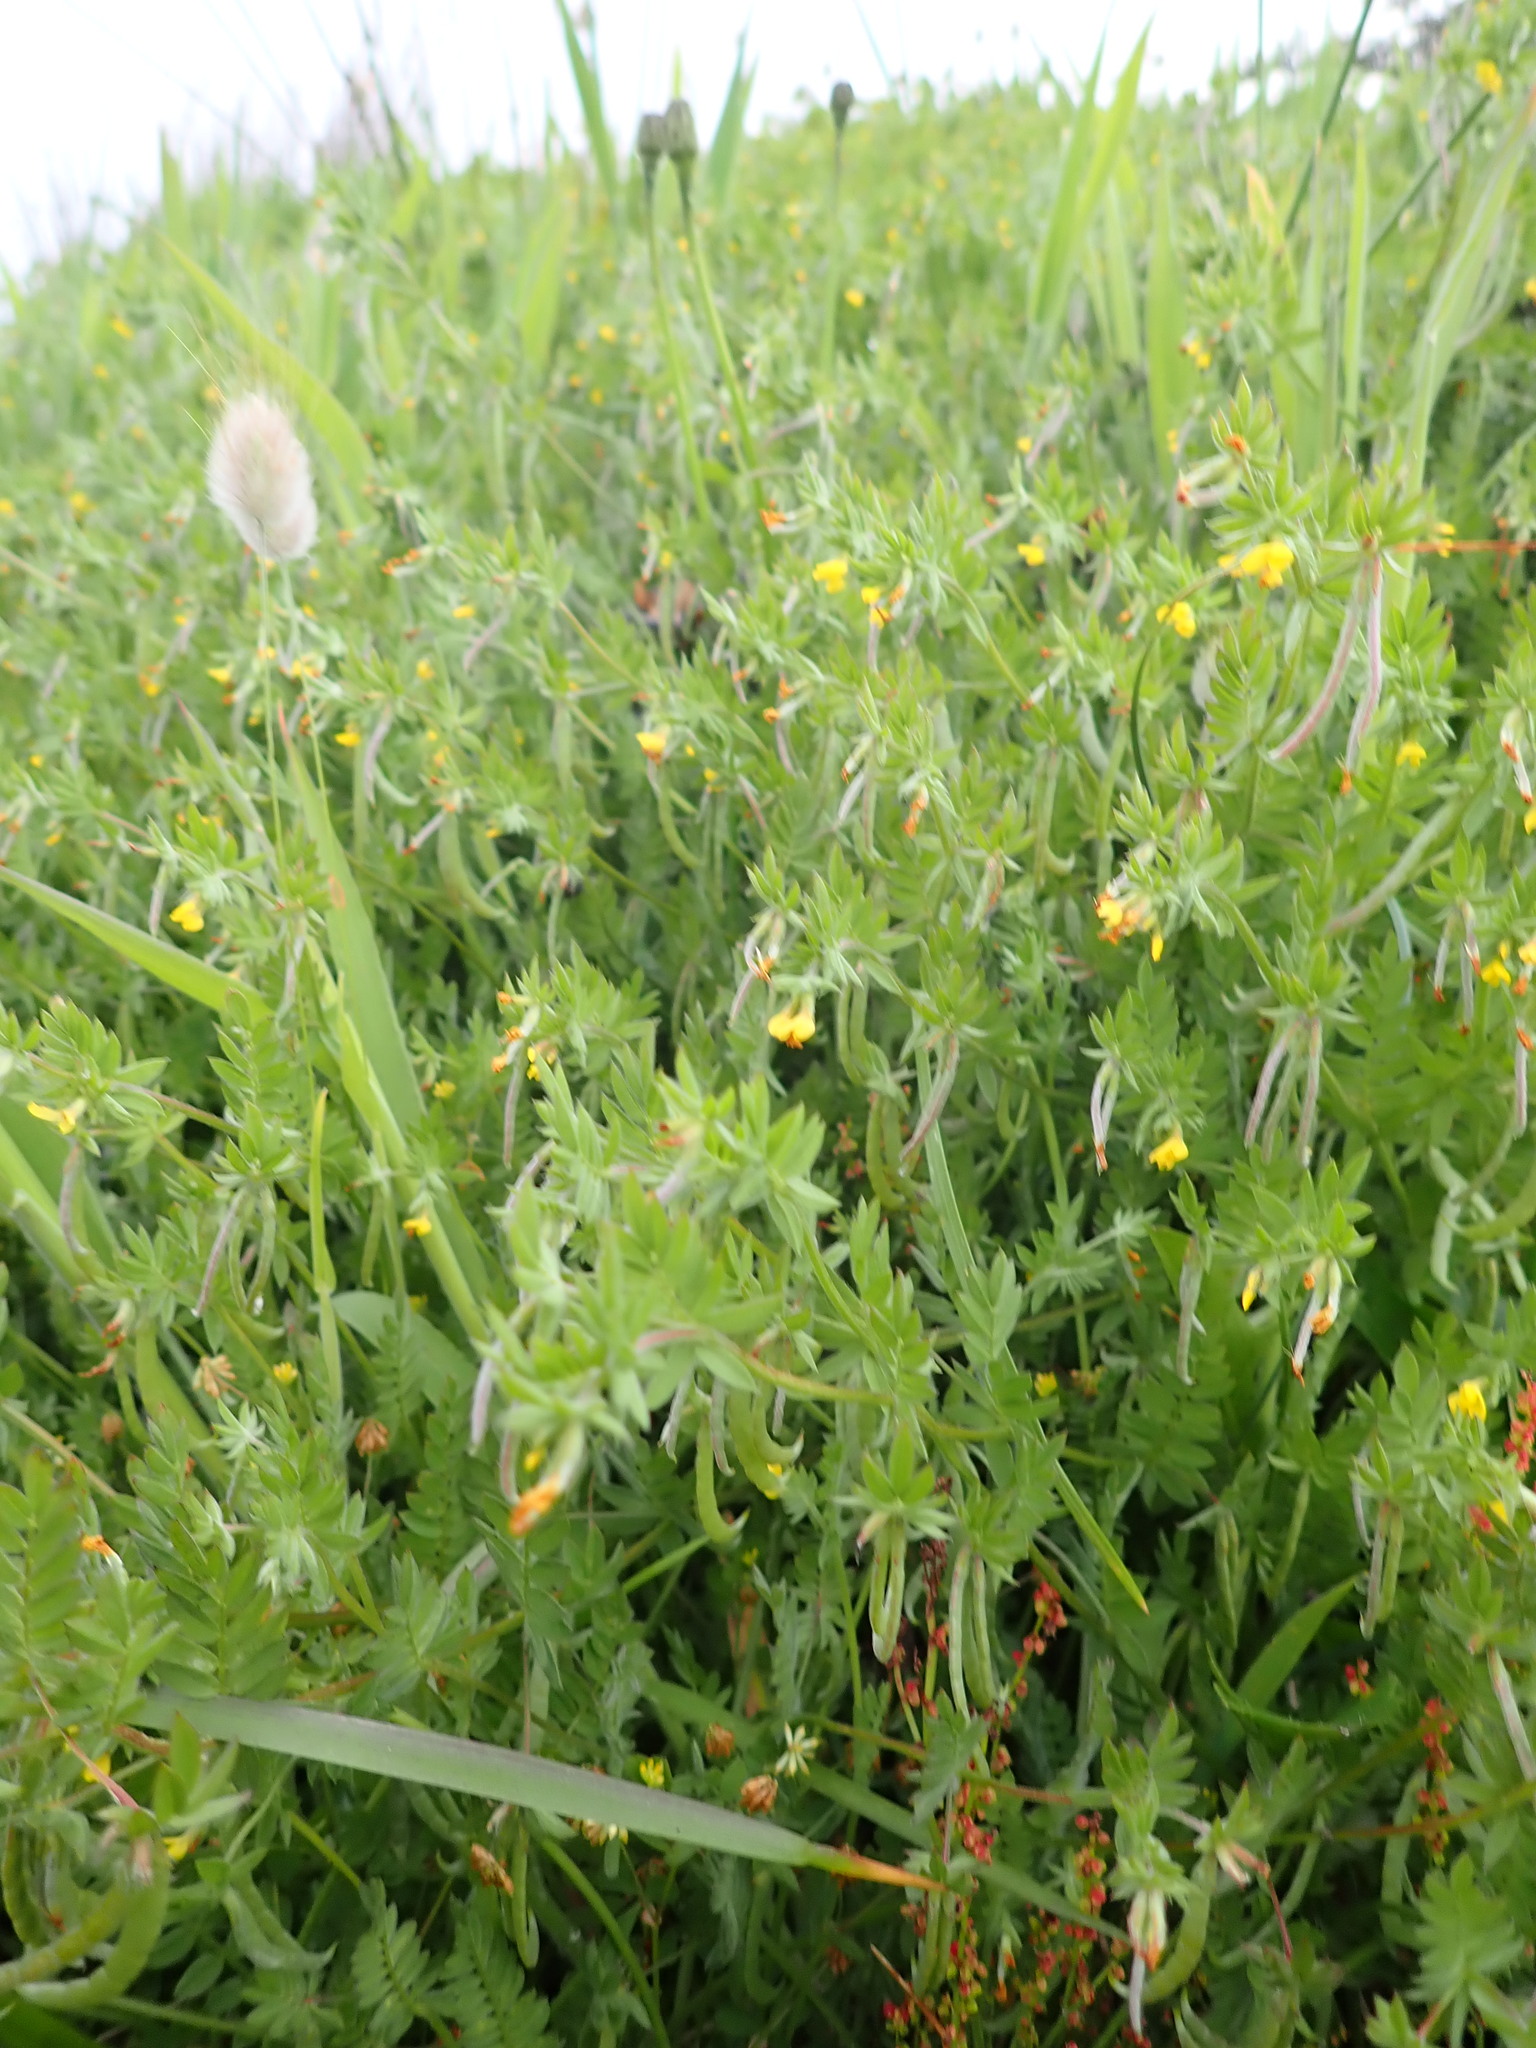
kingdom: Plantae
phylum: Tracheophyta
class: Magnoliopsida
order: Fabales
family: Fabaceae
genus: Ornithopus
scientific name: Ornithopus compressus
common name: Yellow serradella
